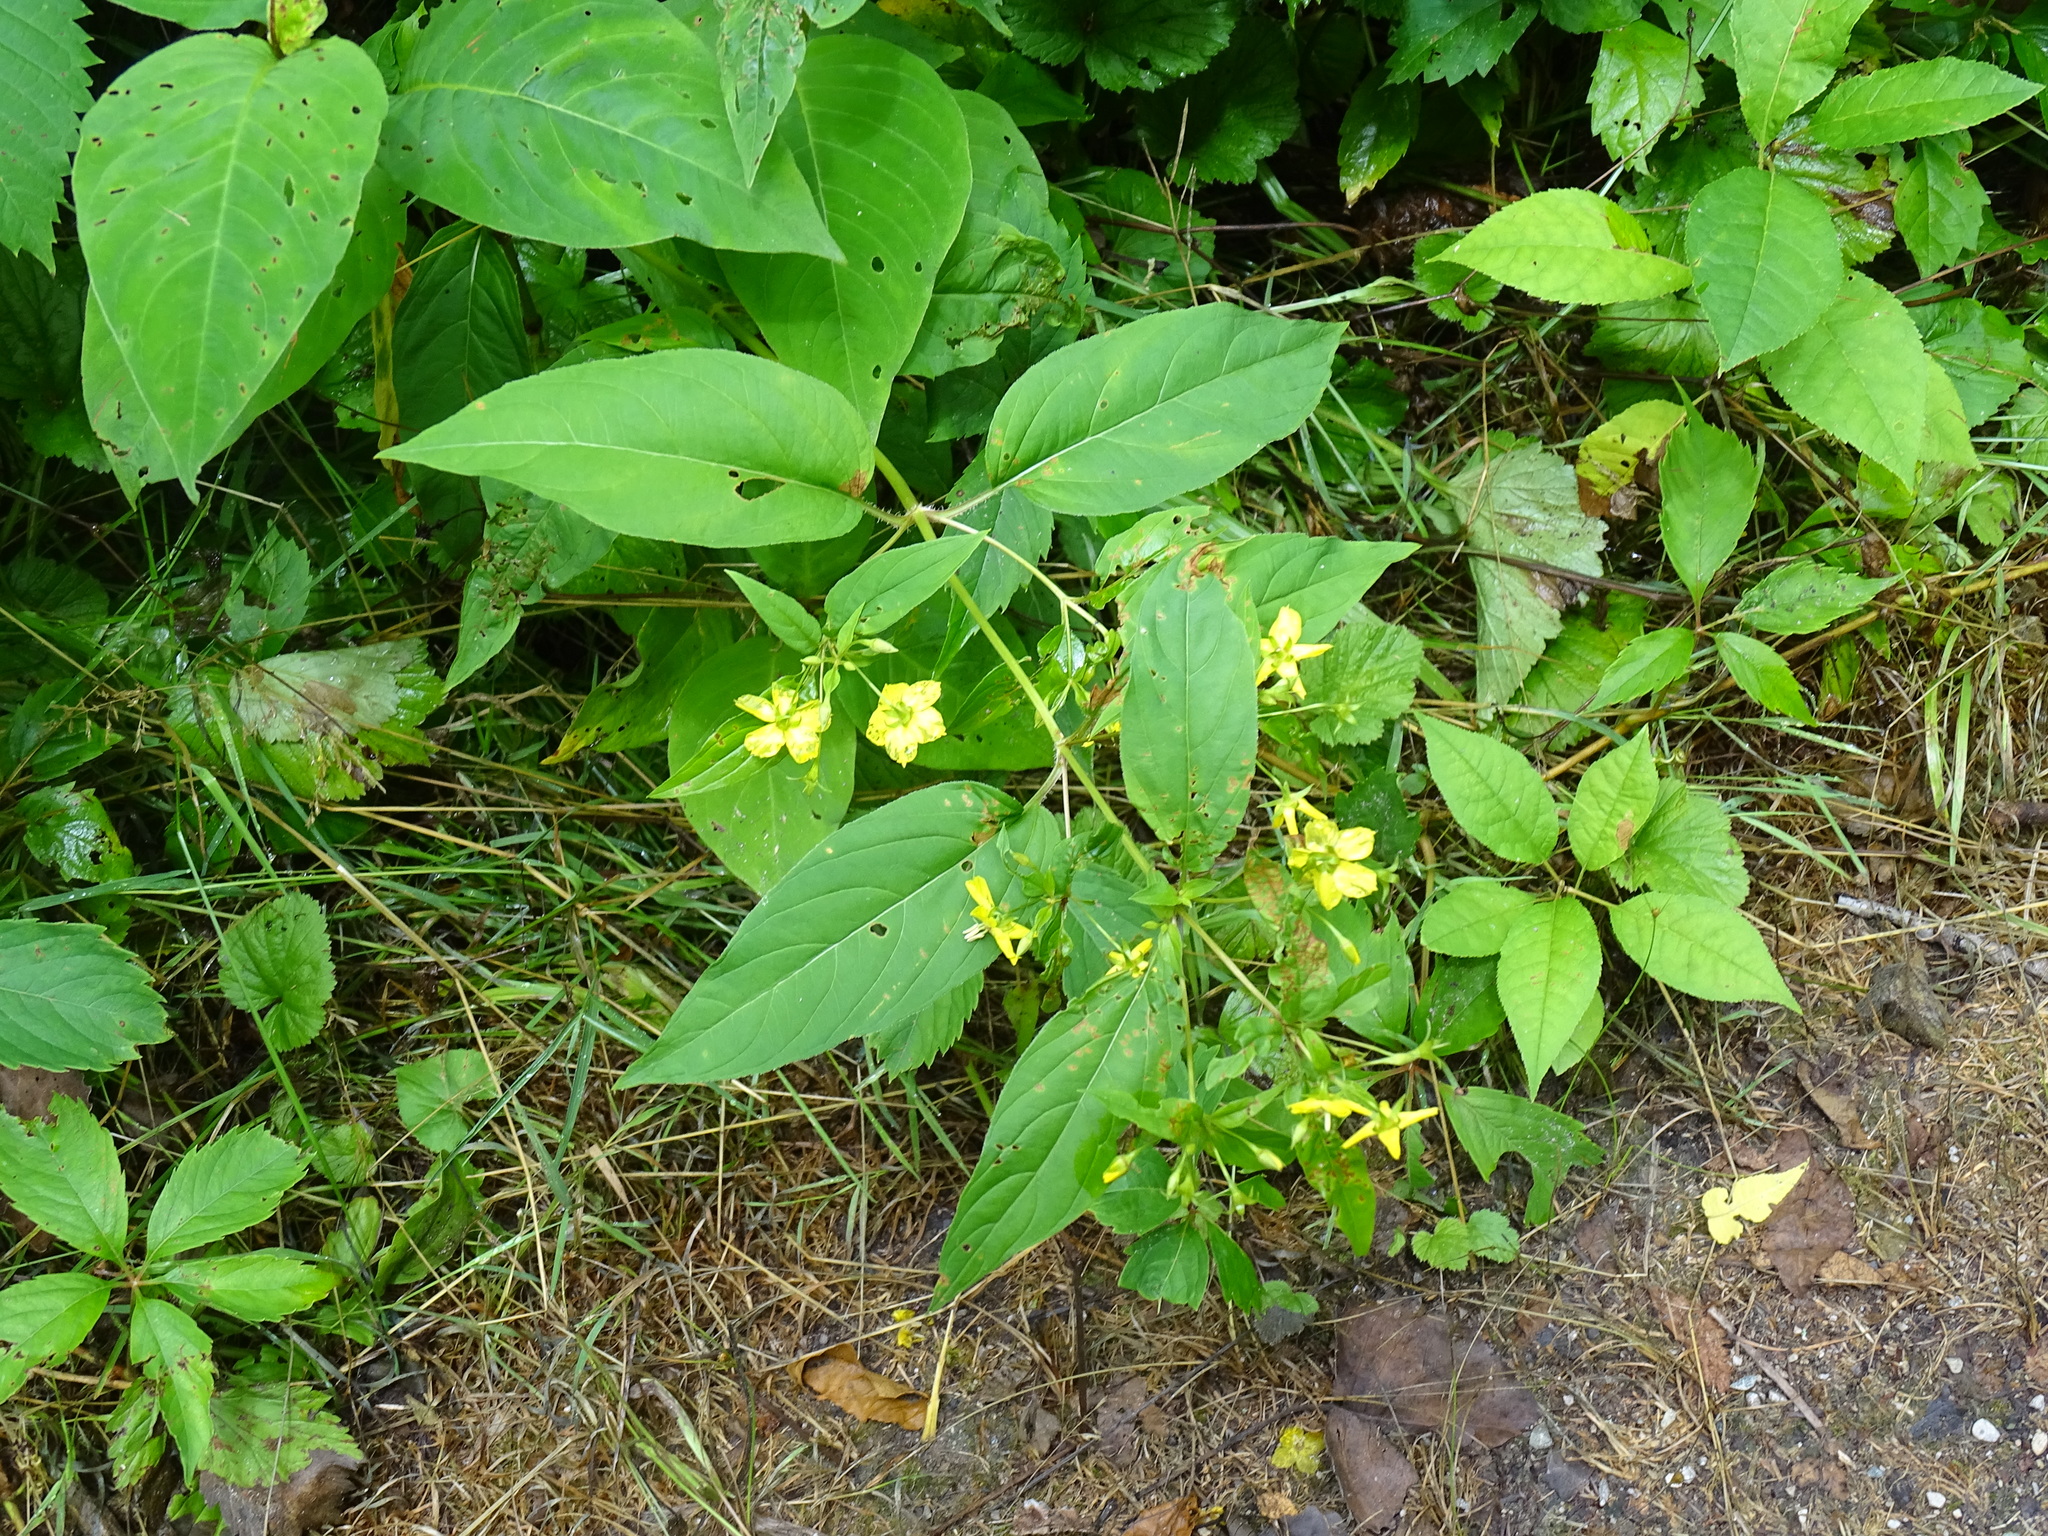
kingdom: Plantae
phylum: Tracheophyta
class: Magnoliopsida
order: Ericales
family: Primulaceae
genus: Lysimachia
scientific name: Lysimachia ciliata
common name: Fringed loosestrife
